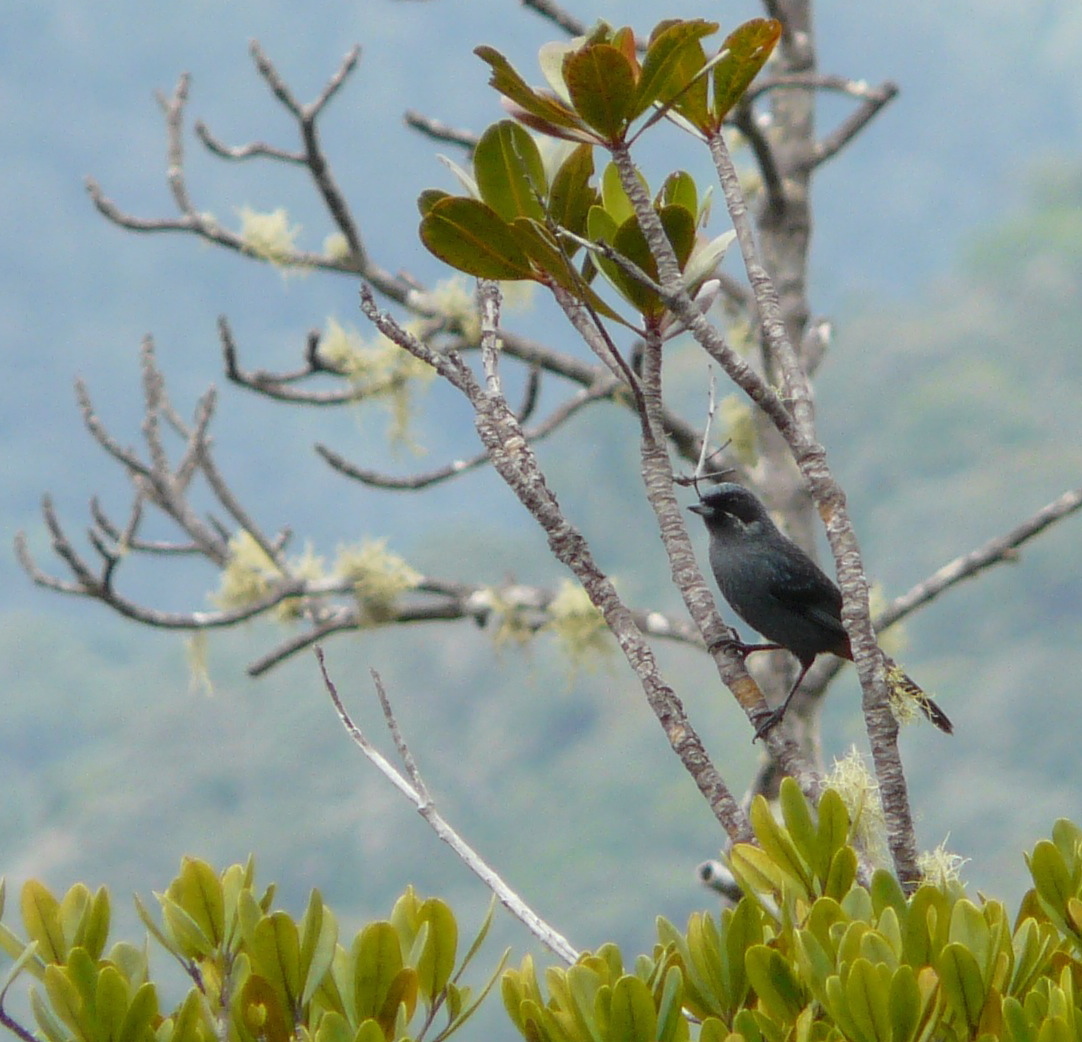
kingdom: Animalia
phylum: Chordata
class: Aves
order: Passeriformes
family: Thraupidae
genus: Diglossa
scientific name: Diglossa major
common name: Greater flowerpiercer
